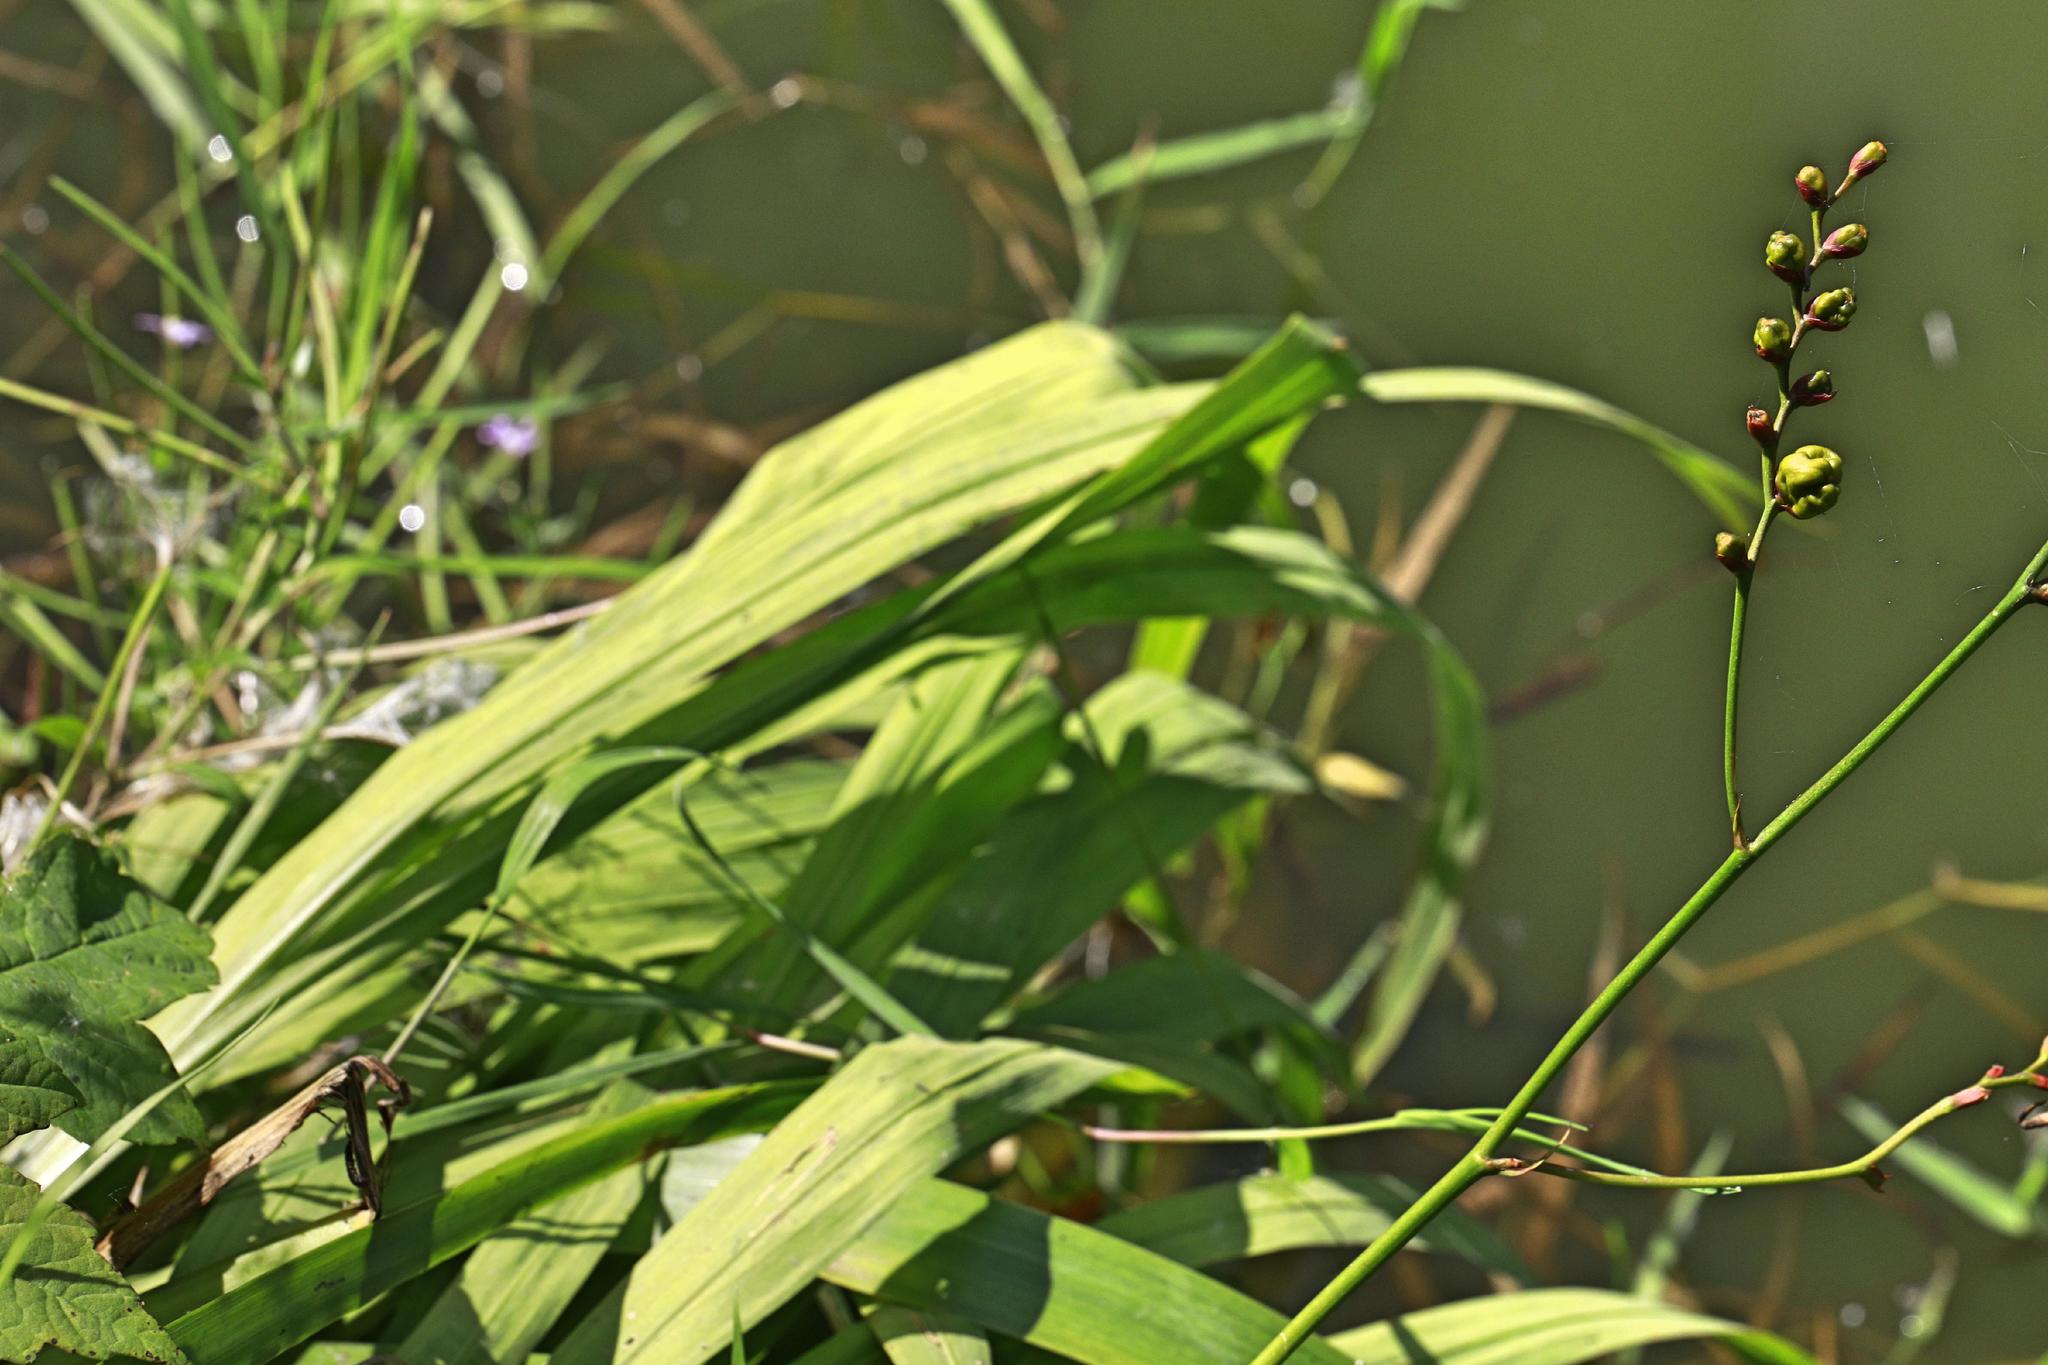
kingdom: Plantae
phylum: Tracheophyta
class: Liliopsida
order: Asparagales
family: Iridaceae
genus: Crocosmia
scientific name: Crocosmia crocosmiiflora
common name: Montbretia
